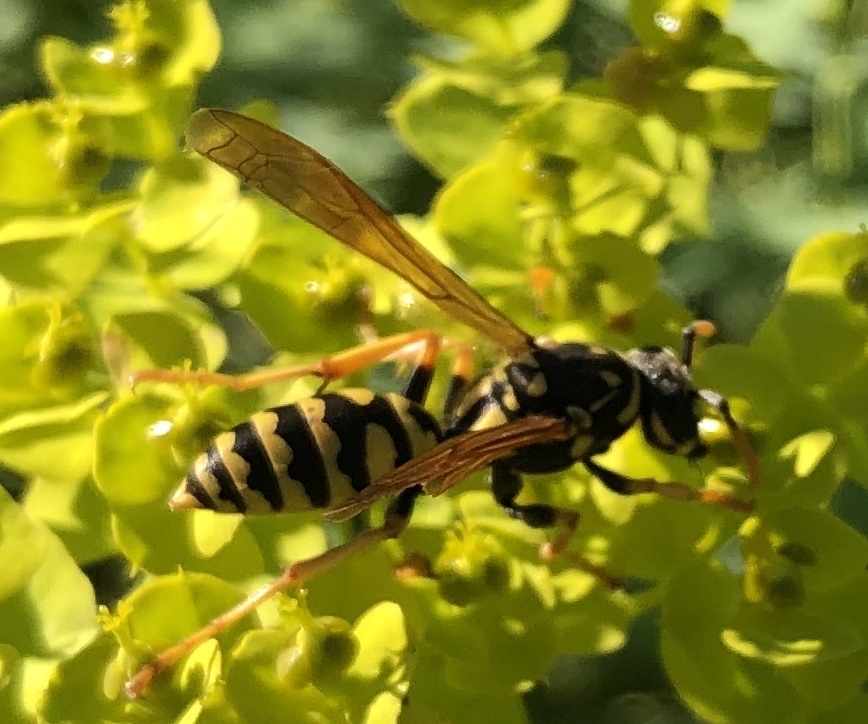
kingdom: Animalia
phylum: Arthropoda
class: Insecta
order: Hymenoptera
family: Eumenidae
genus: Polistes
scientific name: Polistes dominula
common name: Paper wasp
